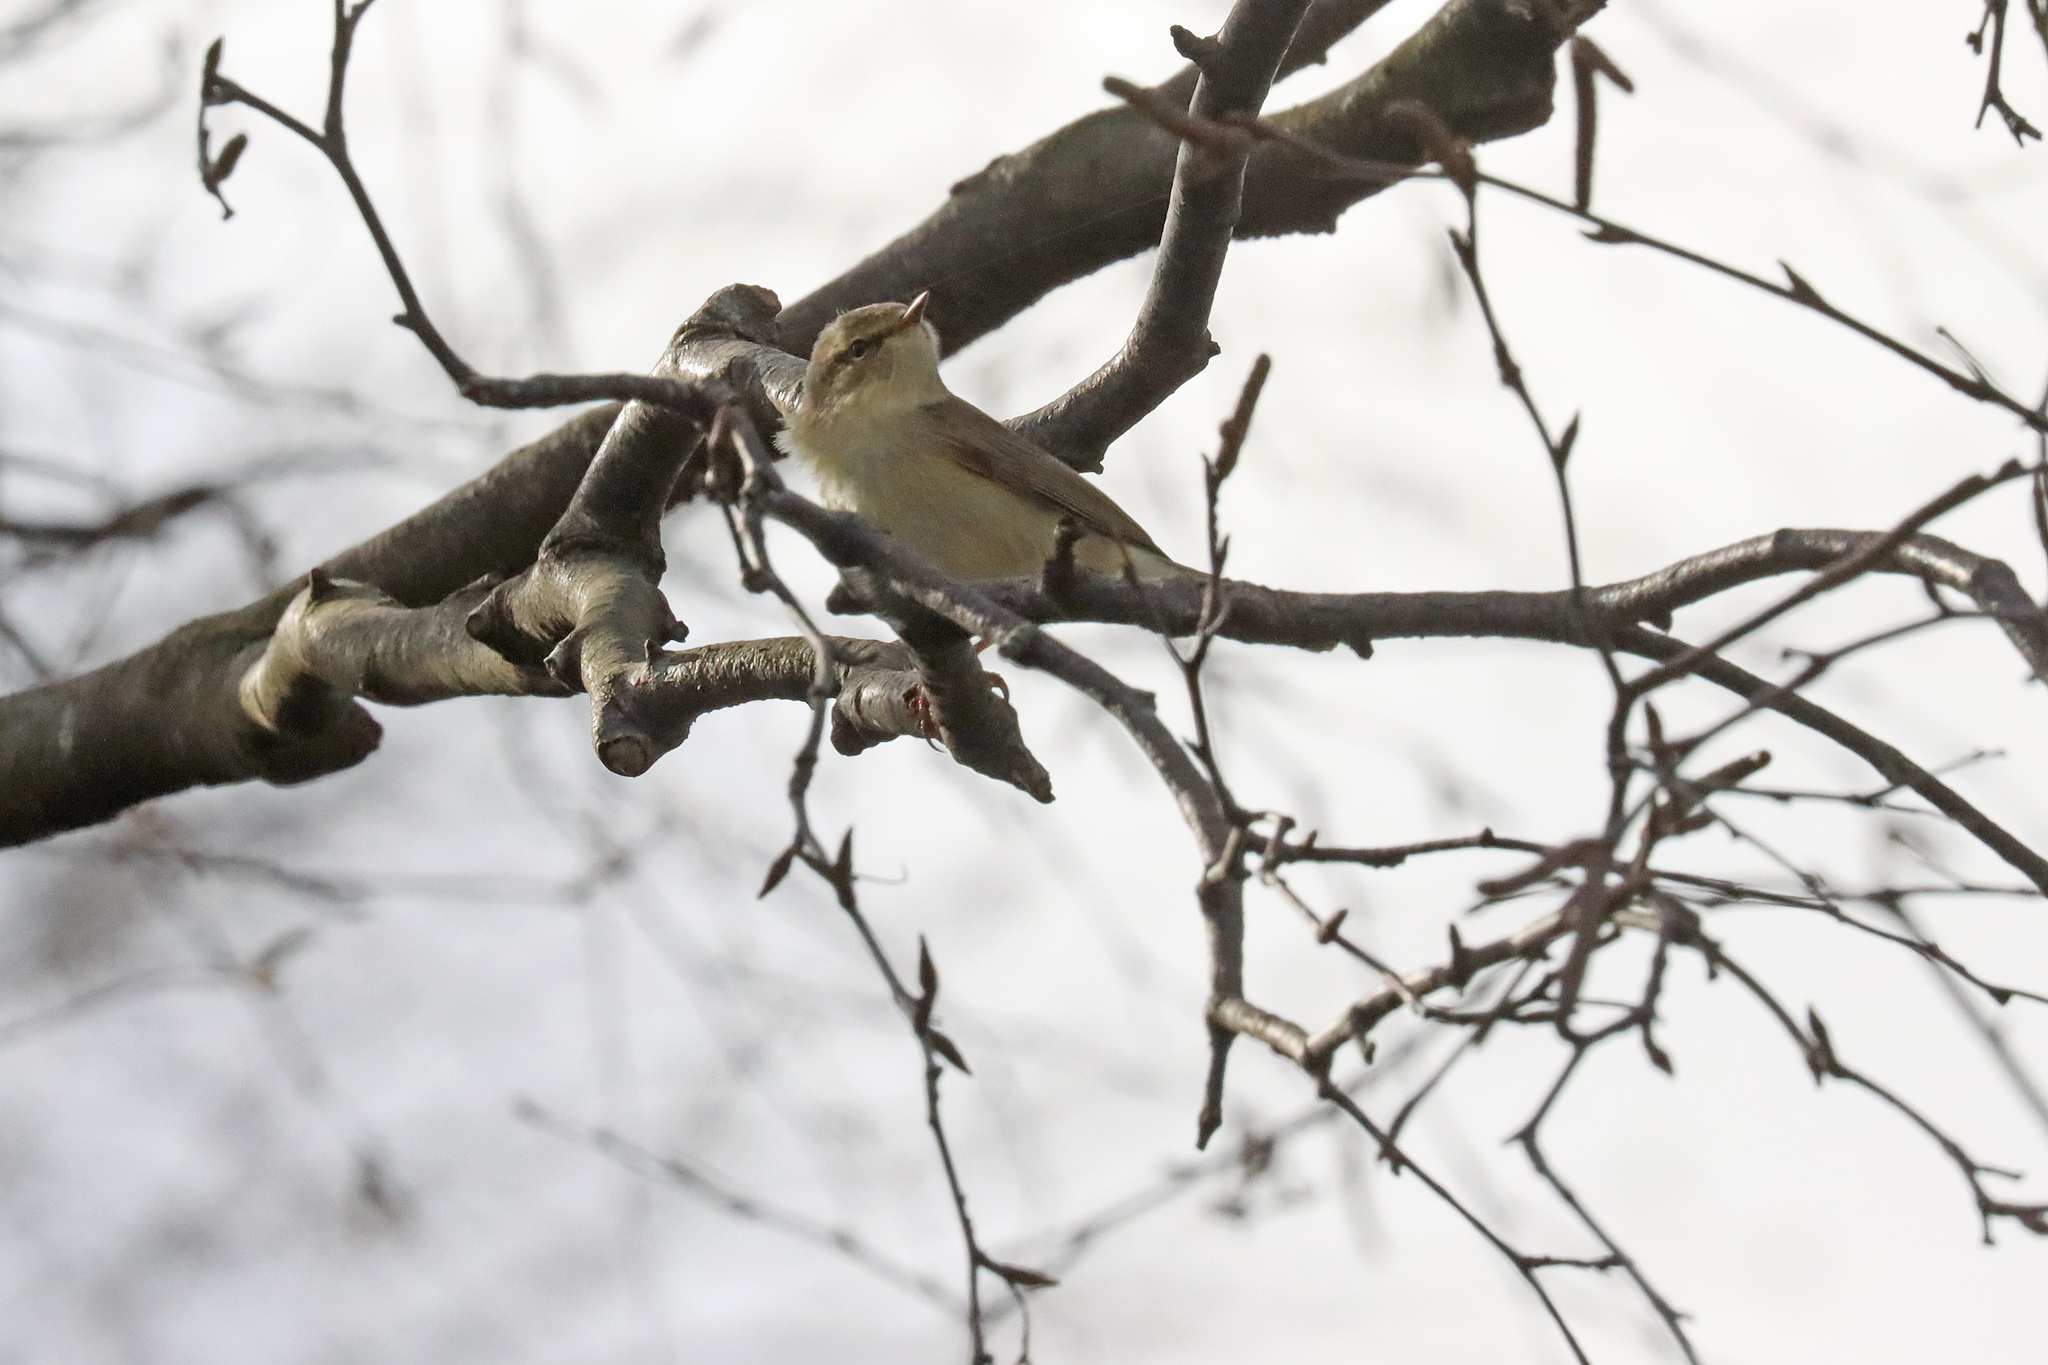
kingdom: Animalia
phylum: Chordata
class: Aves
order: Passeriformes
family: Phylloscopidae
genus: Phylloscopus
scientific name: Phylloscopus collybita
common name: Common chiffchaff
